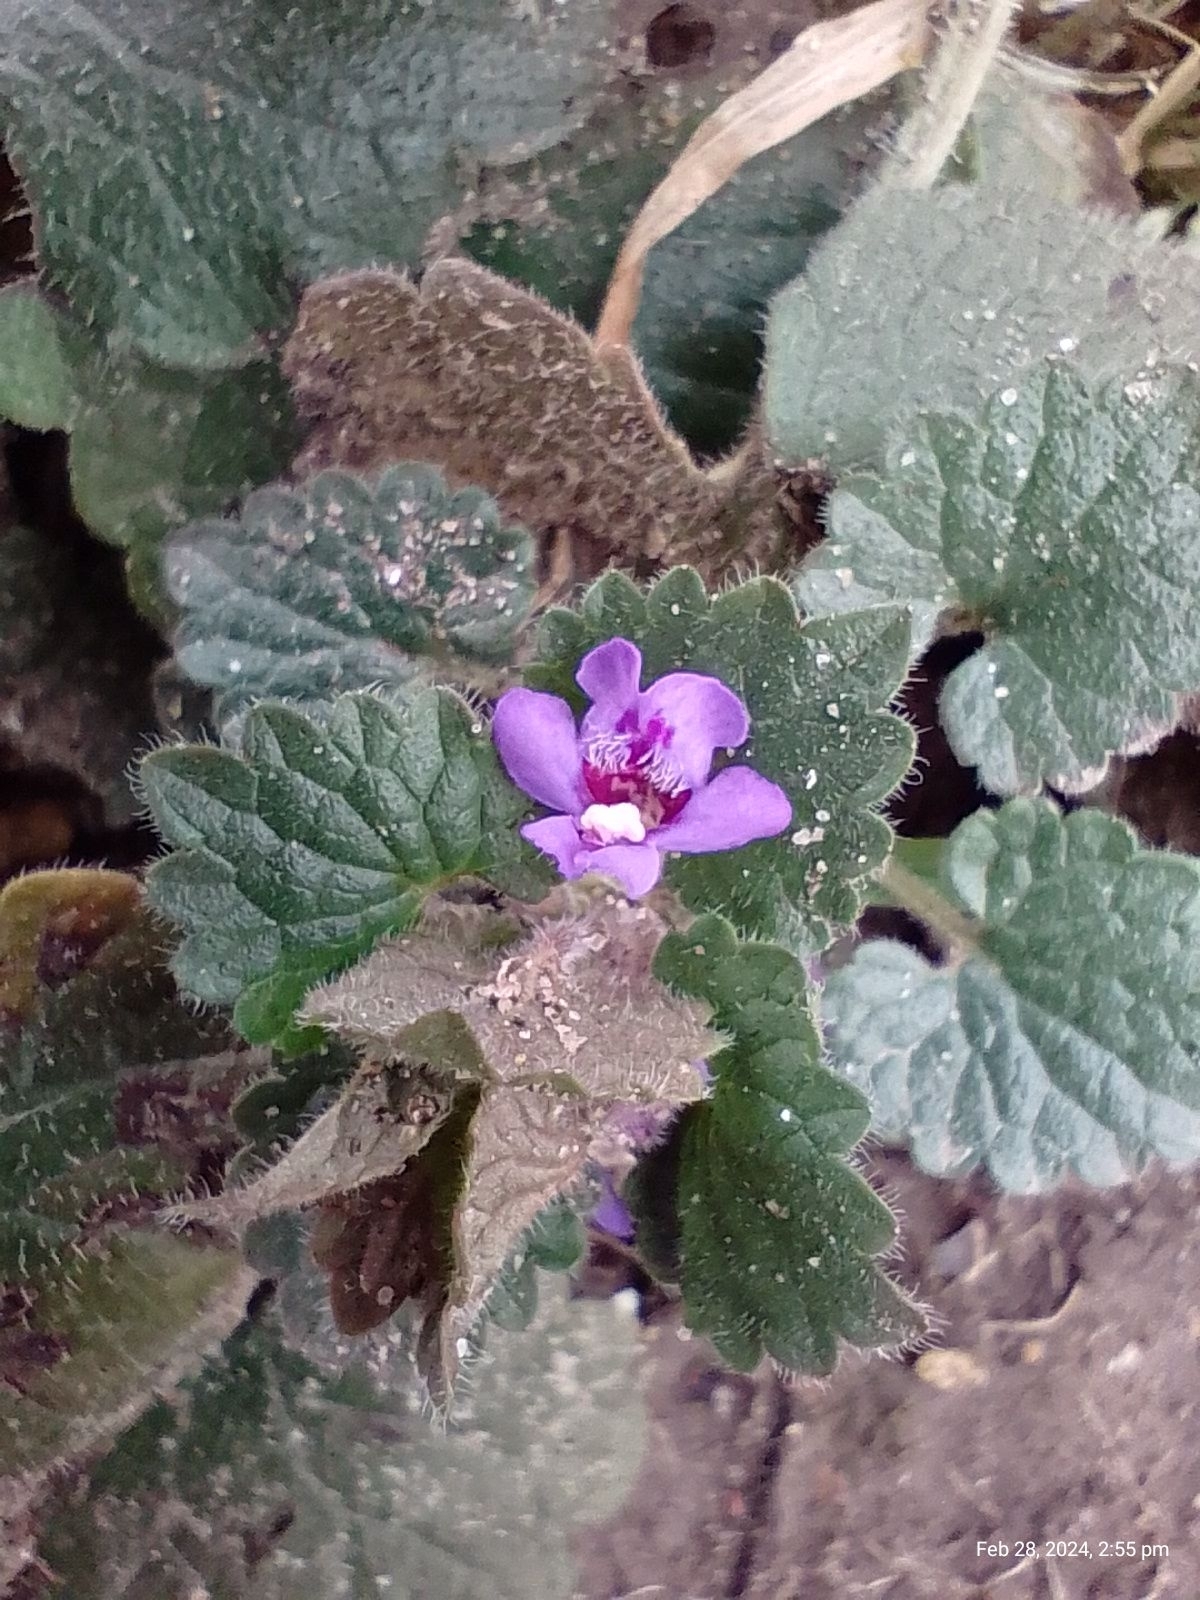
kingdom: Plantae
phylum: Tracheophyta
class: Magnoliopsida
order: Lamiales
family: Lamiaceae
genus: Glechoma
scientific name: Glechoma hederacea
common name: Ground ivy
